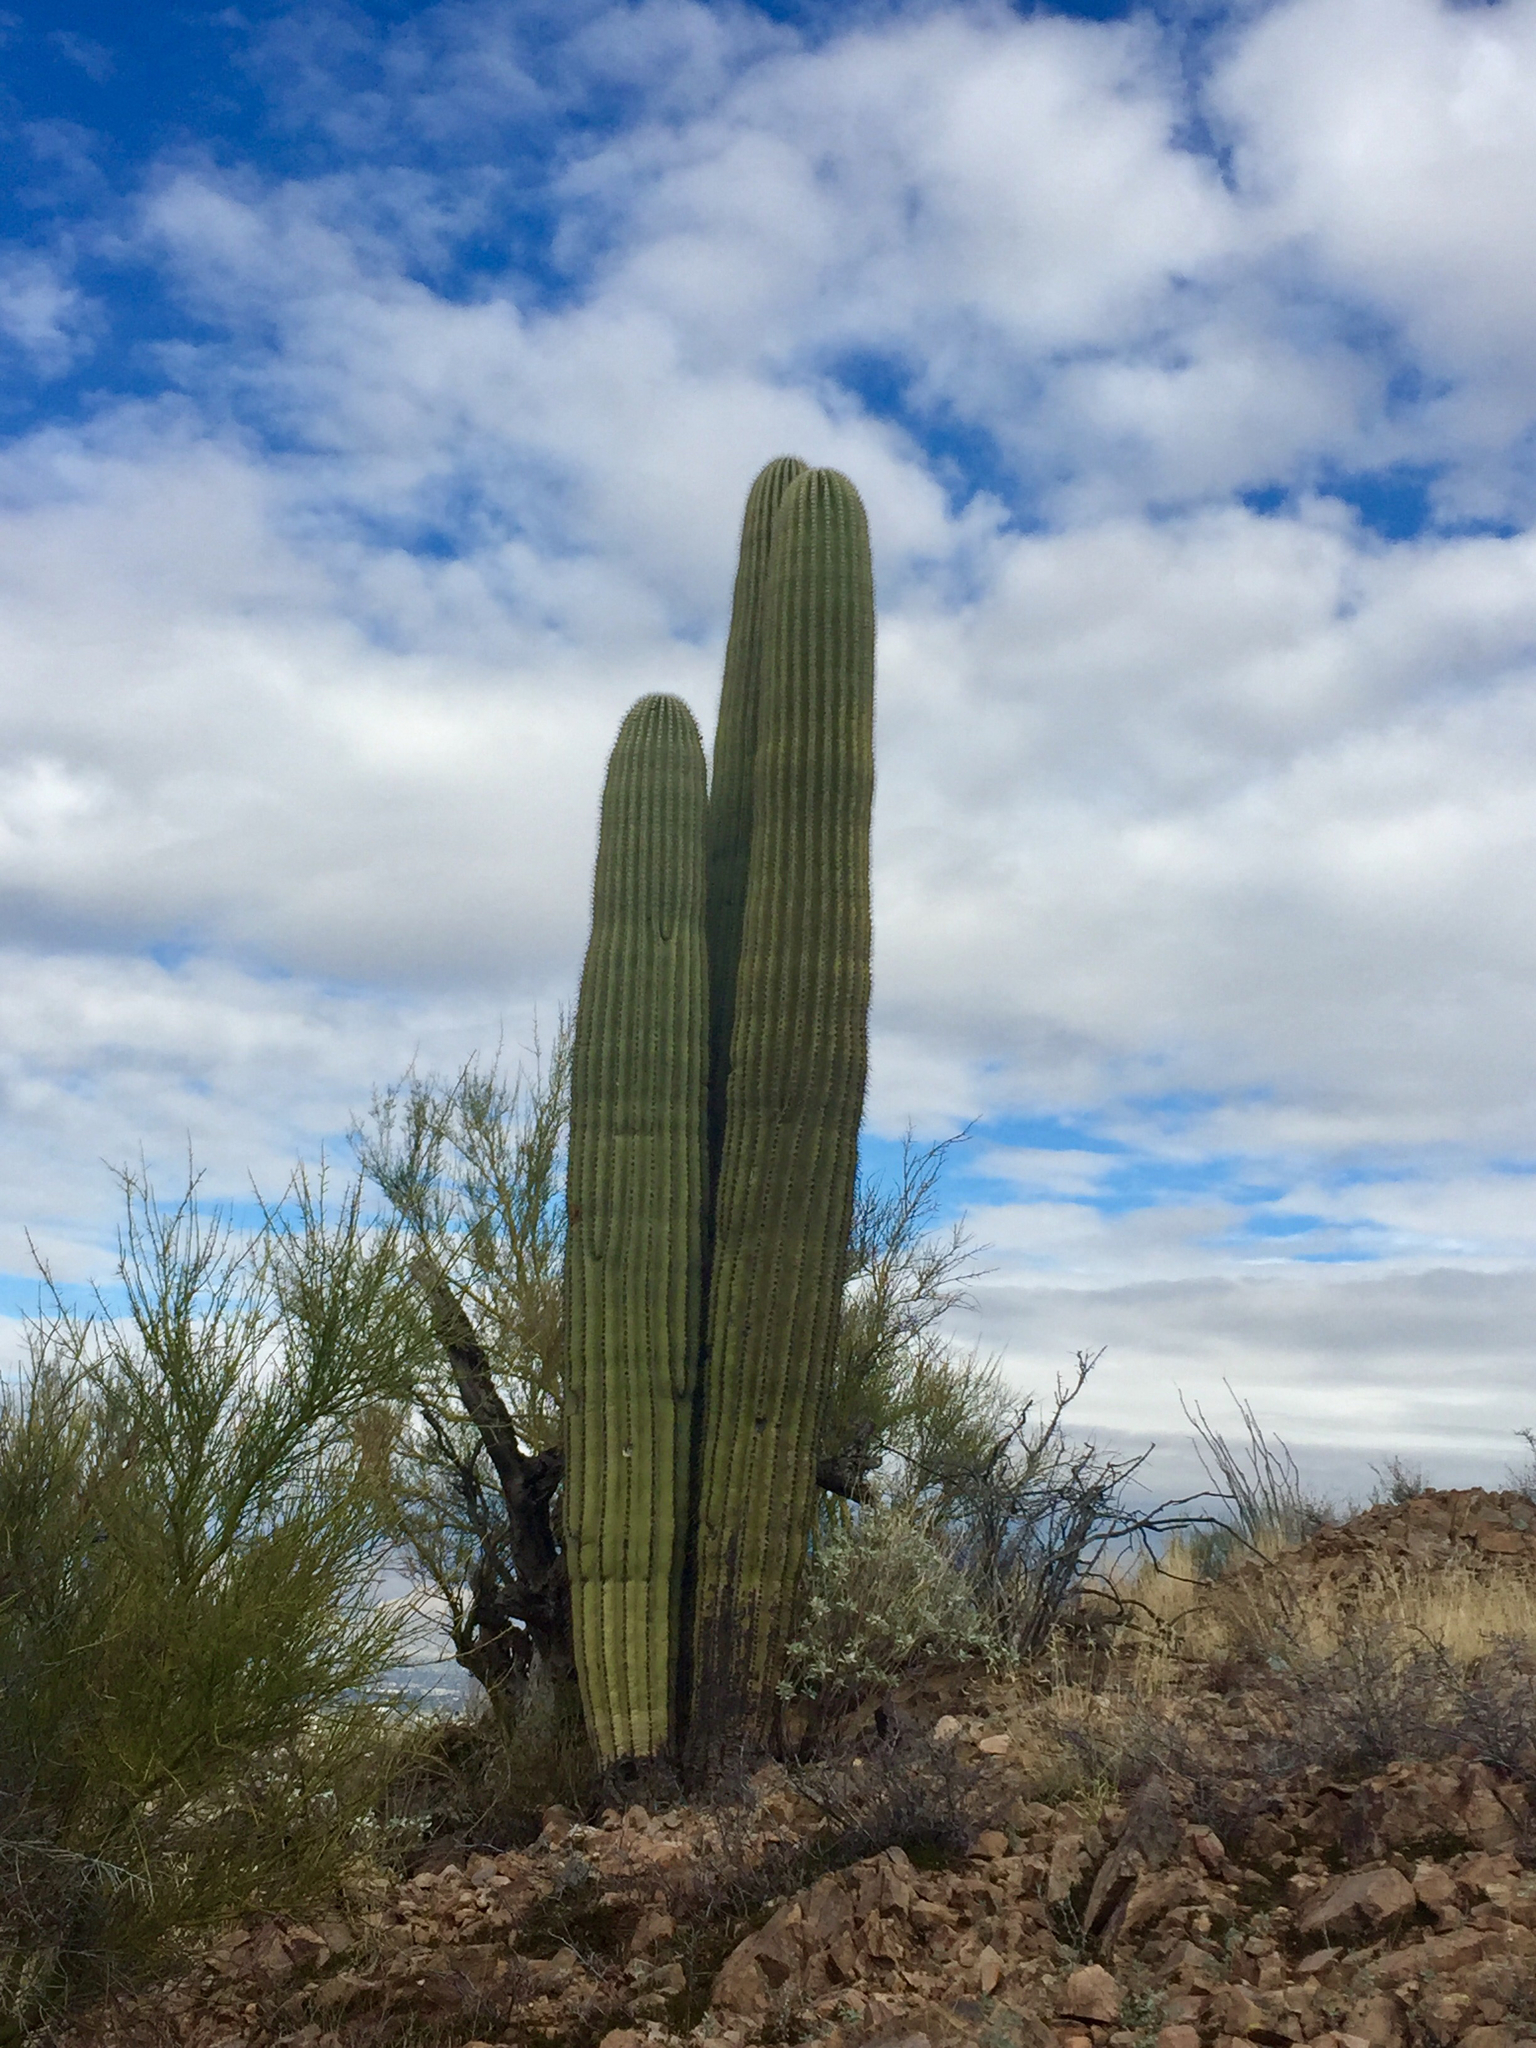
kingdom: Plantae
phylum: Tracheophyta
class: Magnoliopsida
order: Caryophyllales
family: Cactaceae
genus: Carnegiea
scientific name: Carnegiea gigantea
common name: Saguaro
